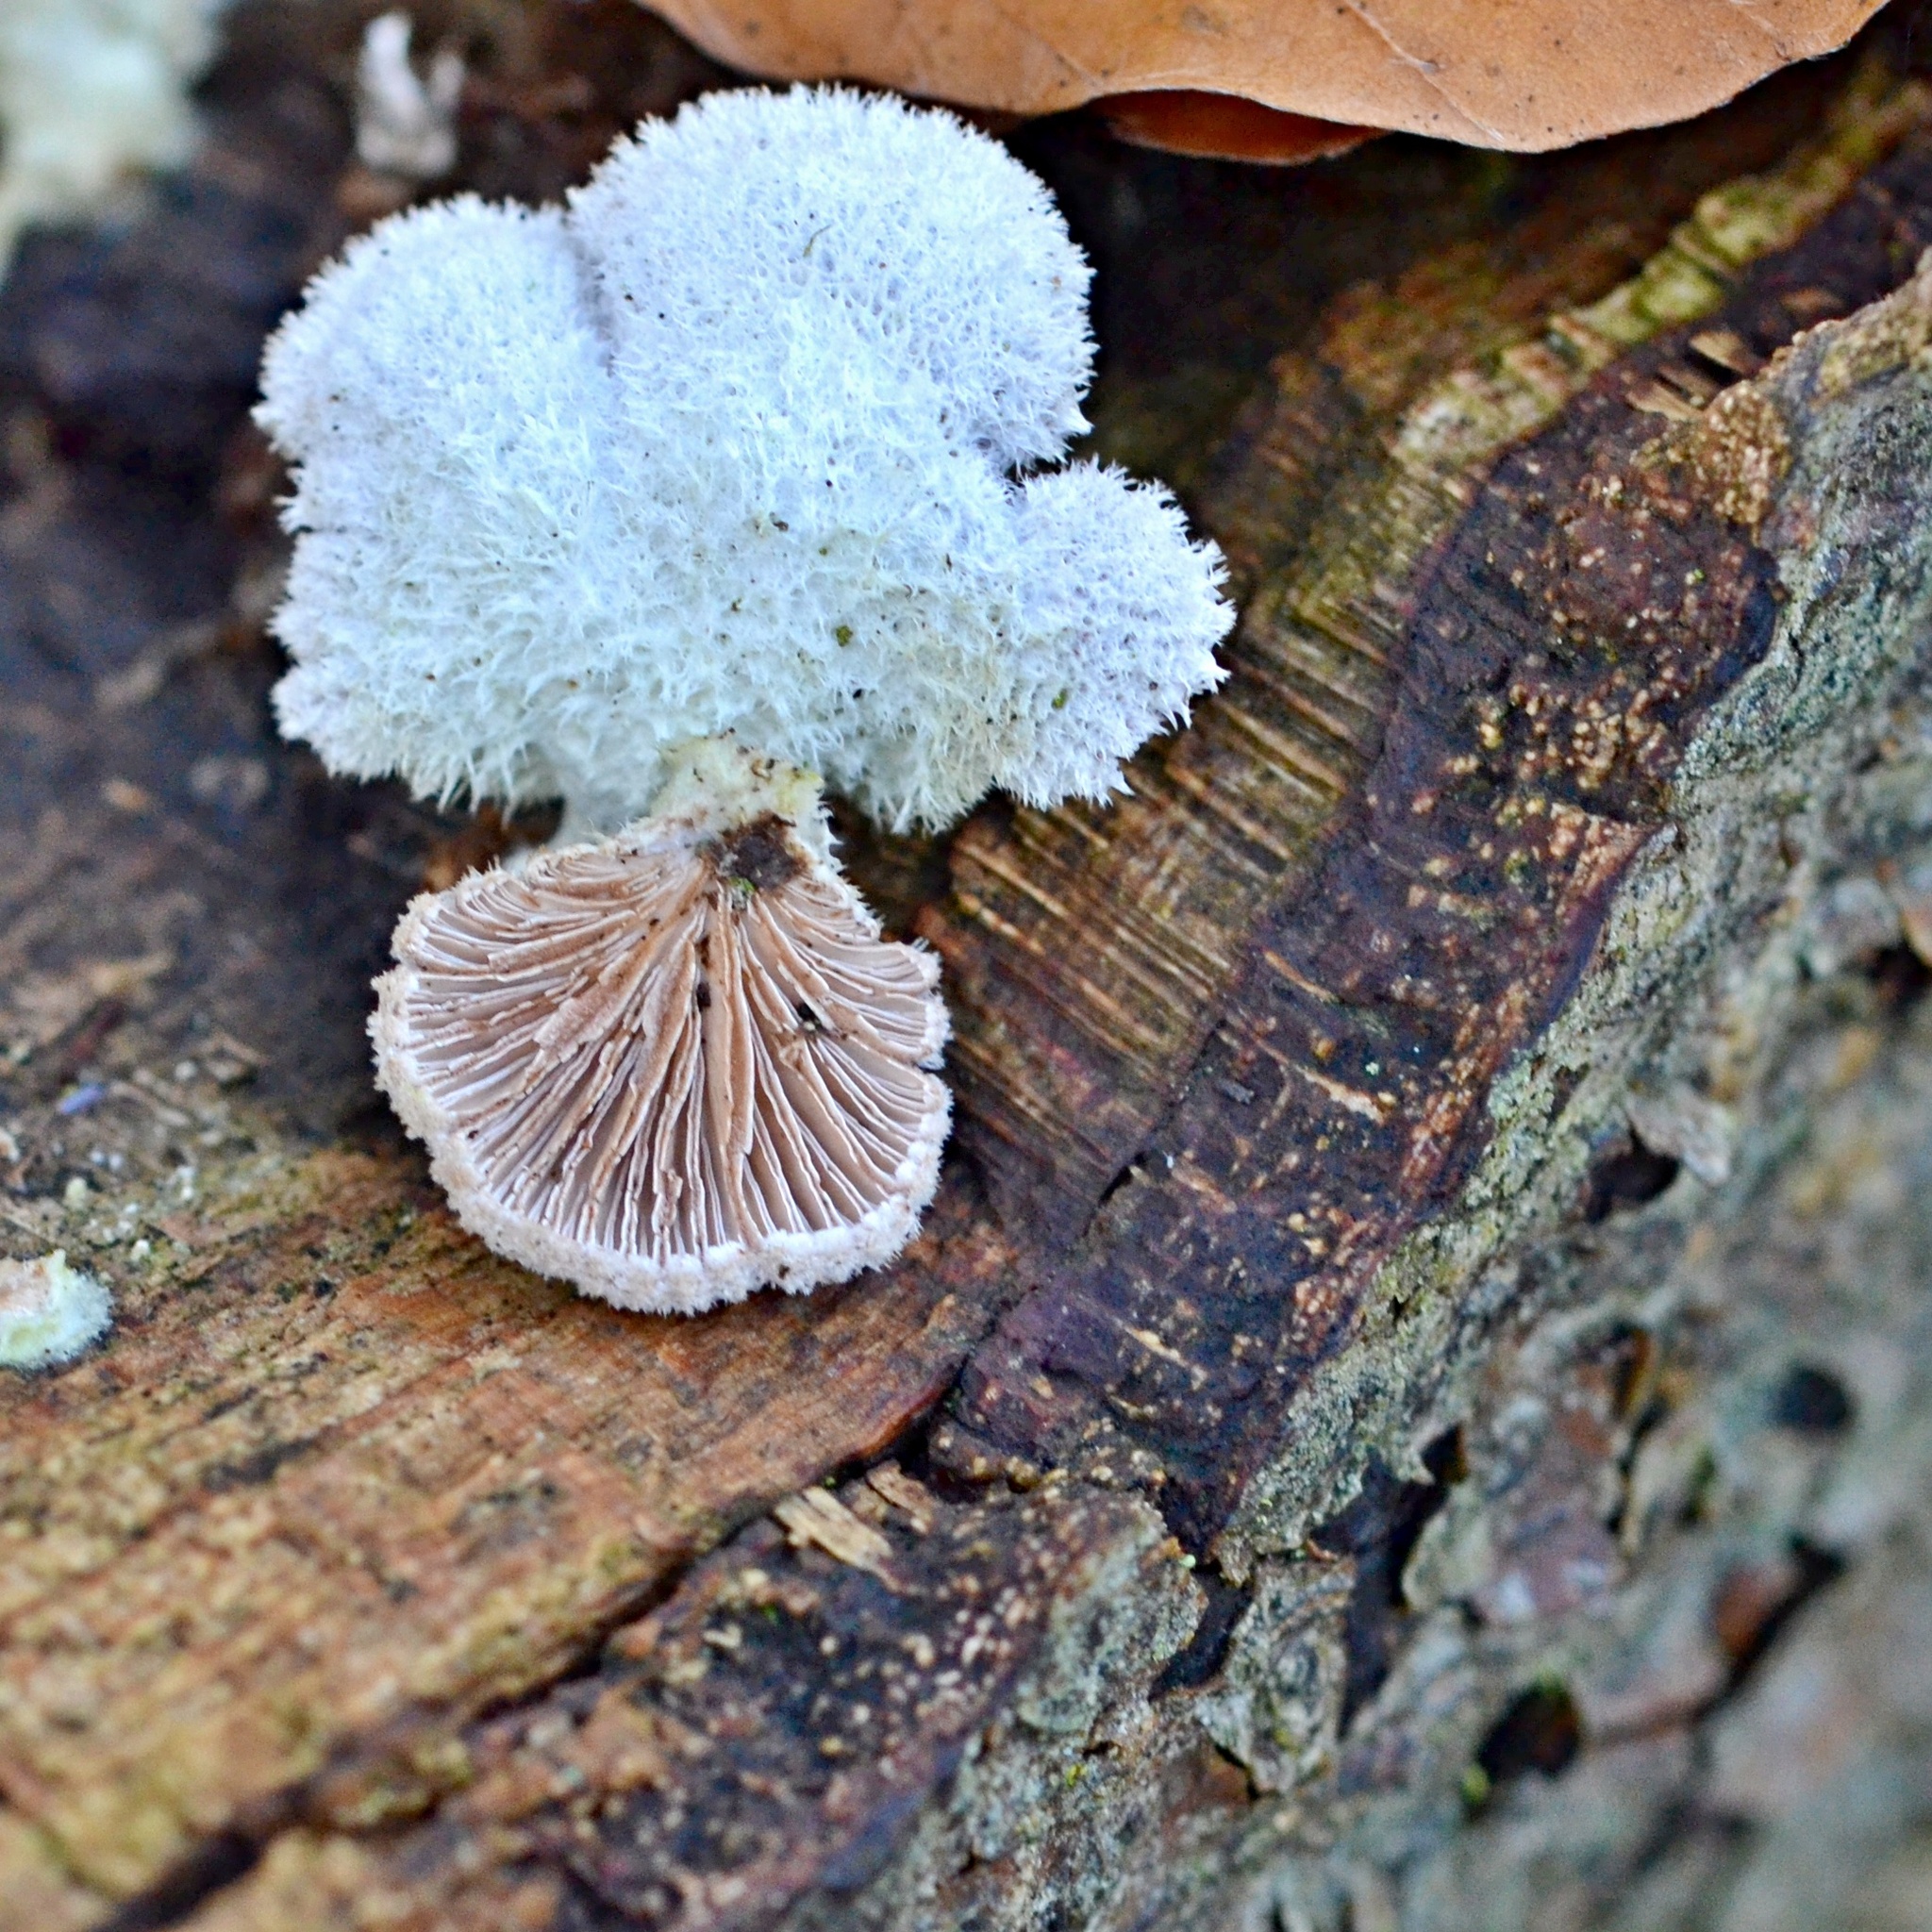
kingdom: Fungi
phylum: Basidiomycota
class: Agaricomycetes
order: Agaricales
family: Schizophyllaceae
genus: Schizophyllum
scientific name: Schizophyllum commune
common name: Common porecrust
